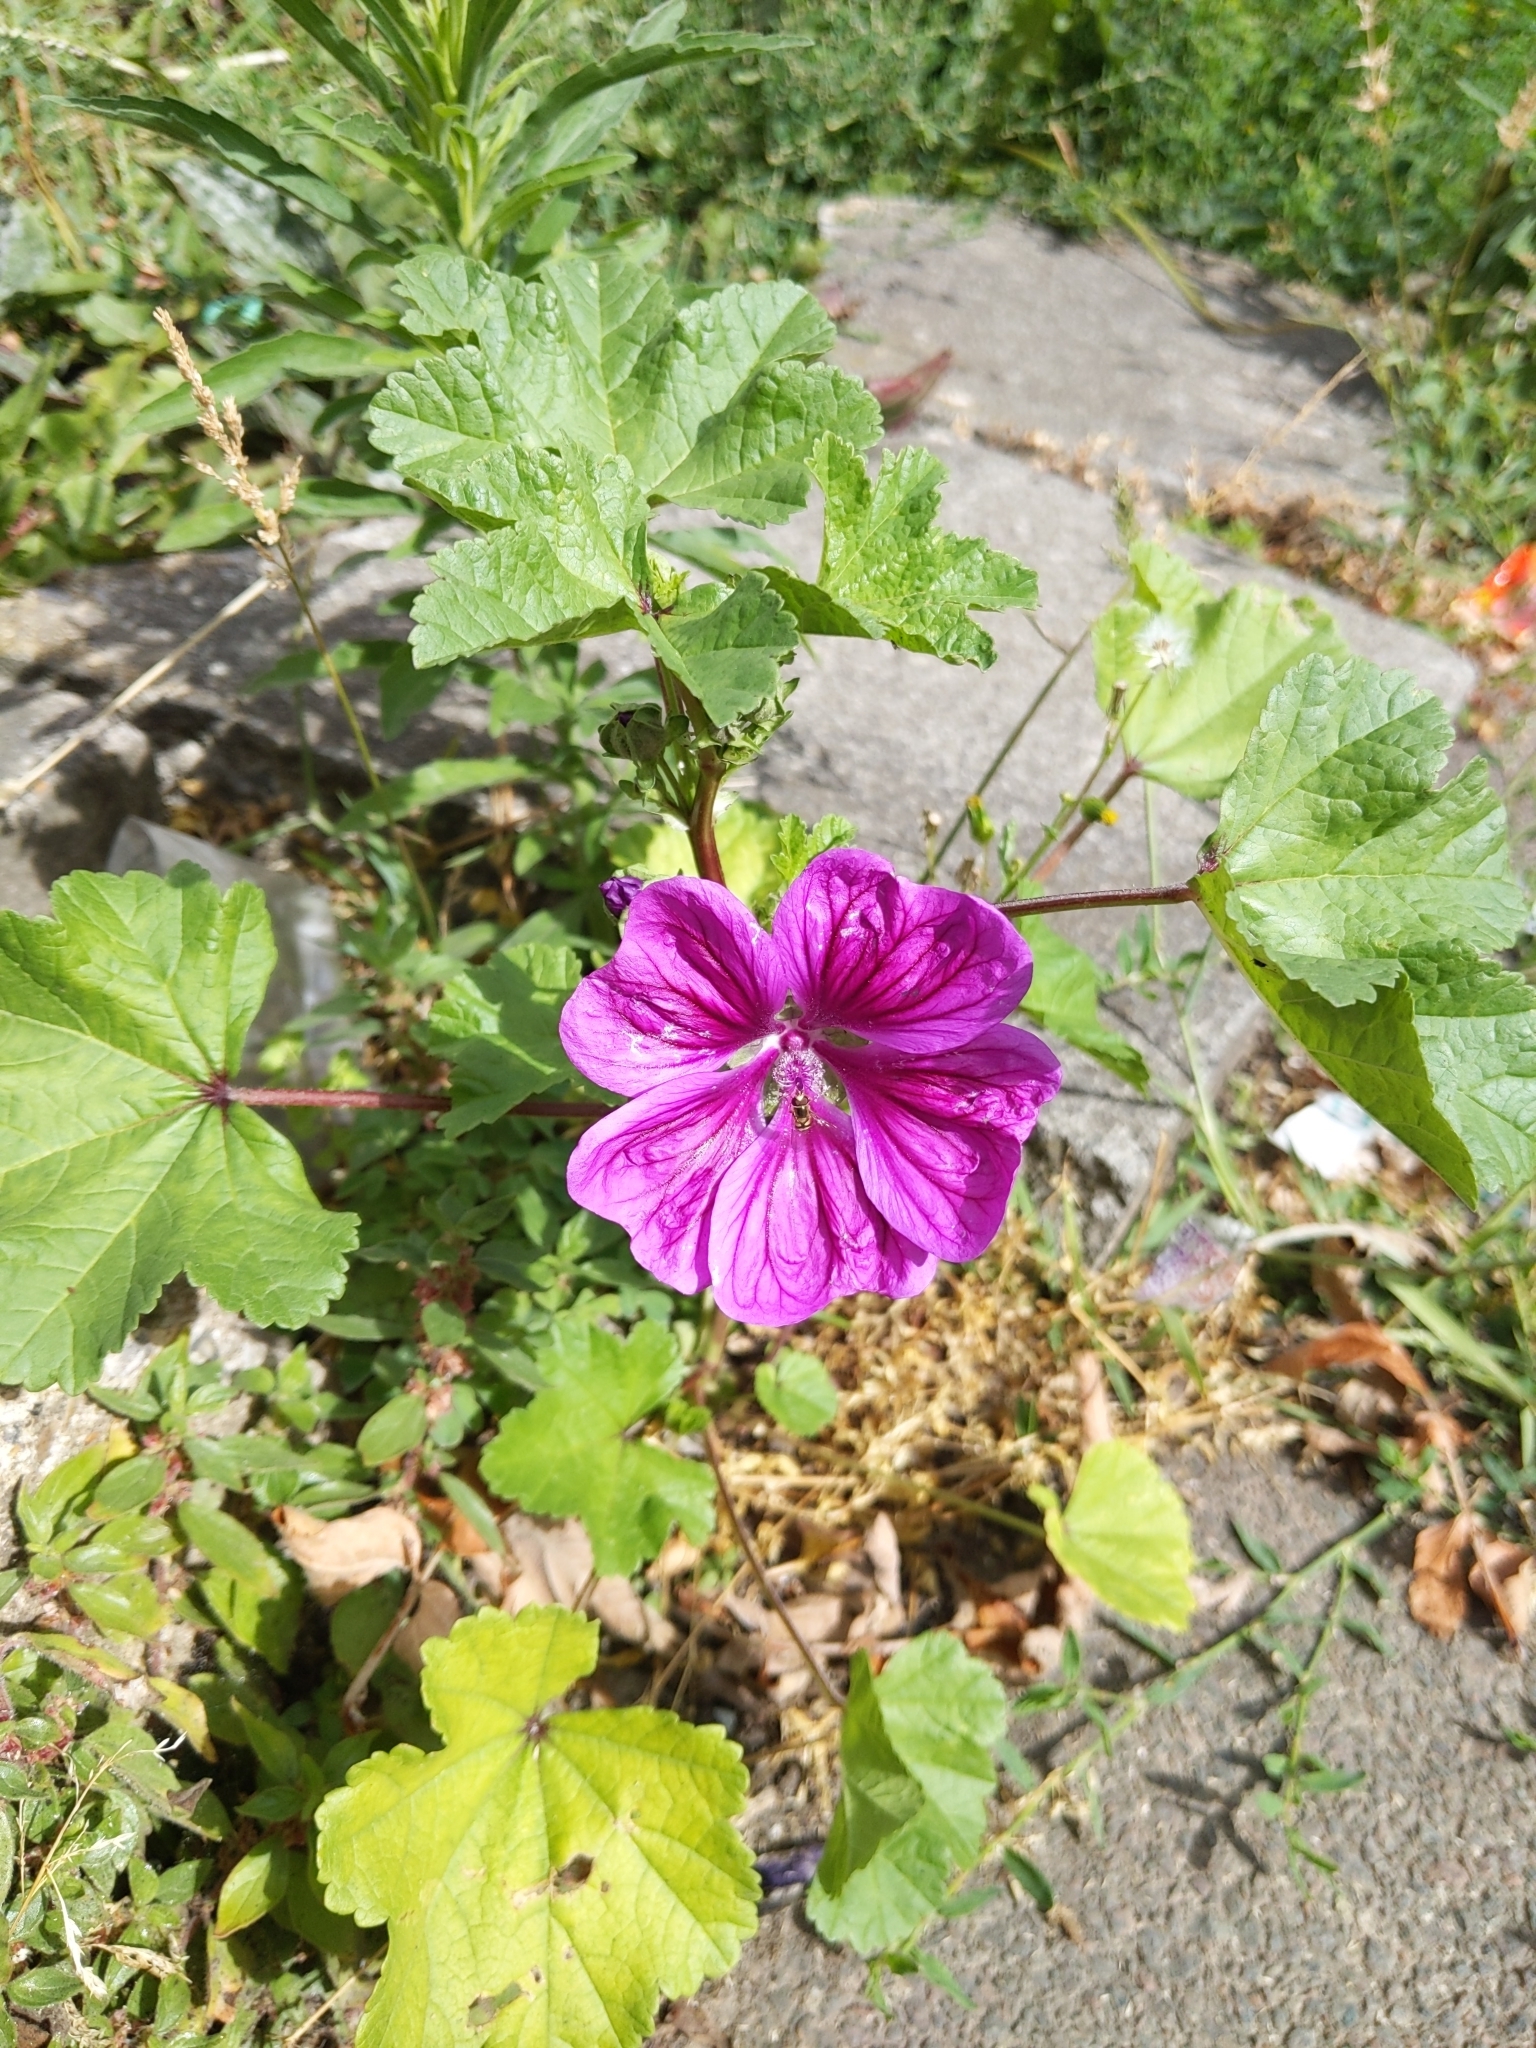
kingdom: Plantae
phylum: Tracheophyta
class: Magnoliopsida
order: Malvales
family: Malvaceae
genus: Malva
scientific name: Malva sylvestris
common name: Common mallow
